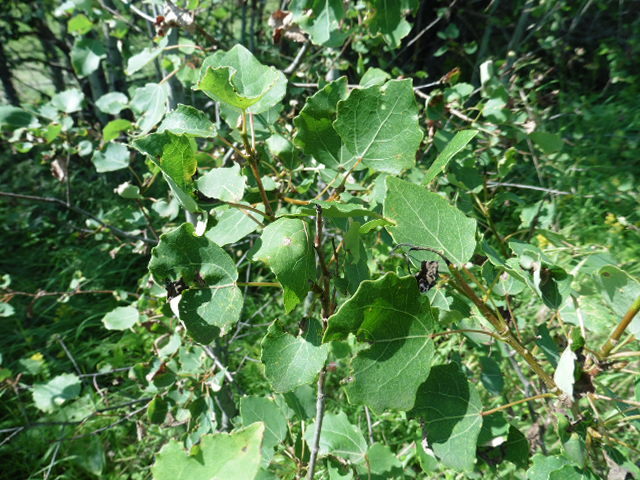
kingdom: Plantae
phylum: Tracheophyta
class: Magnoliopsida
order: Malpighiales
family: Salicaceae
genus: Populus
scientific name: Populus tremula
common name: European aspen
